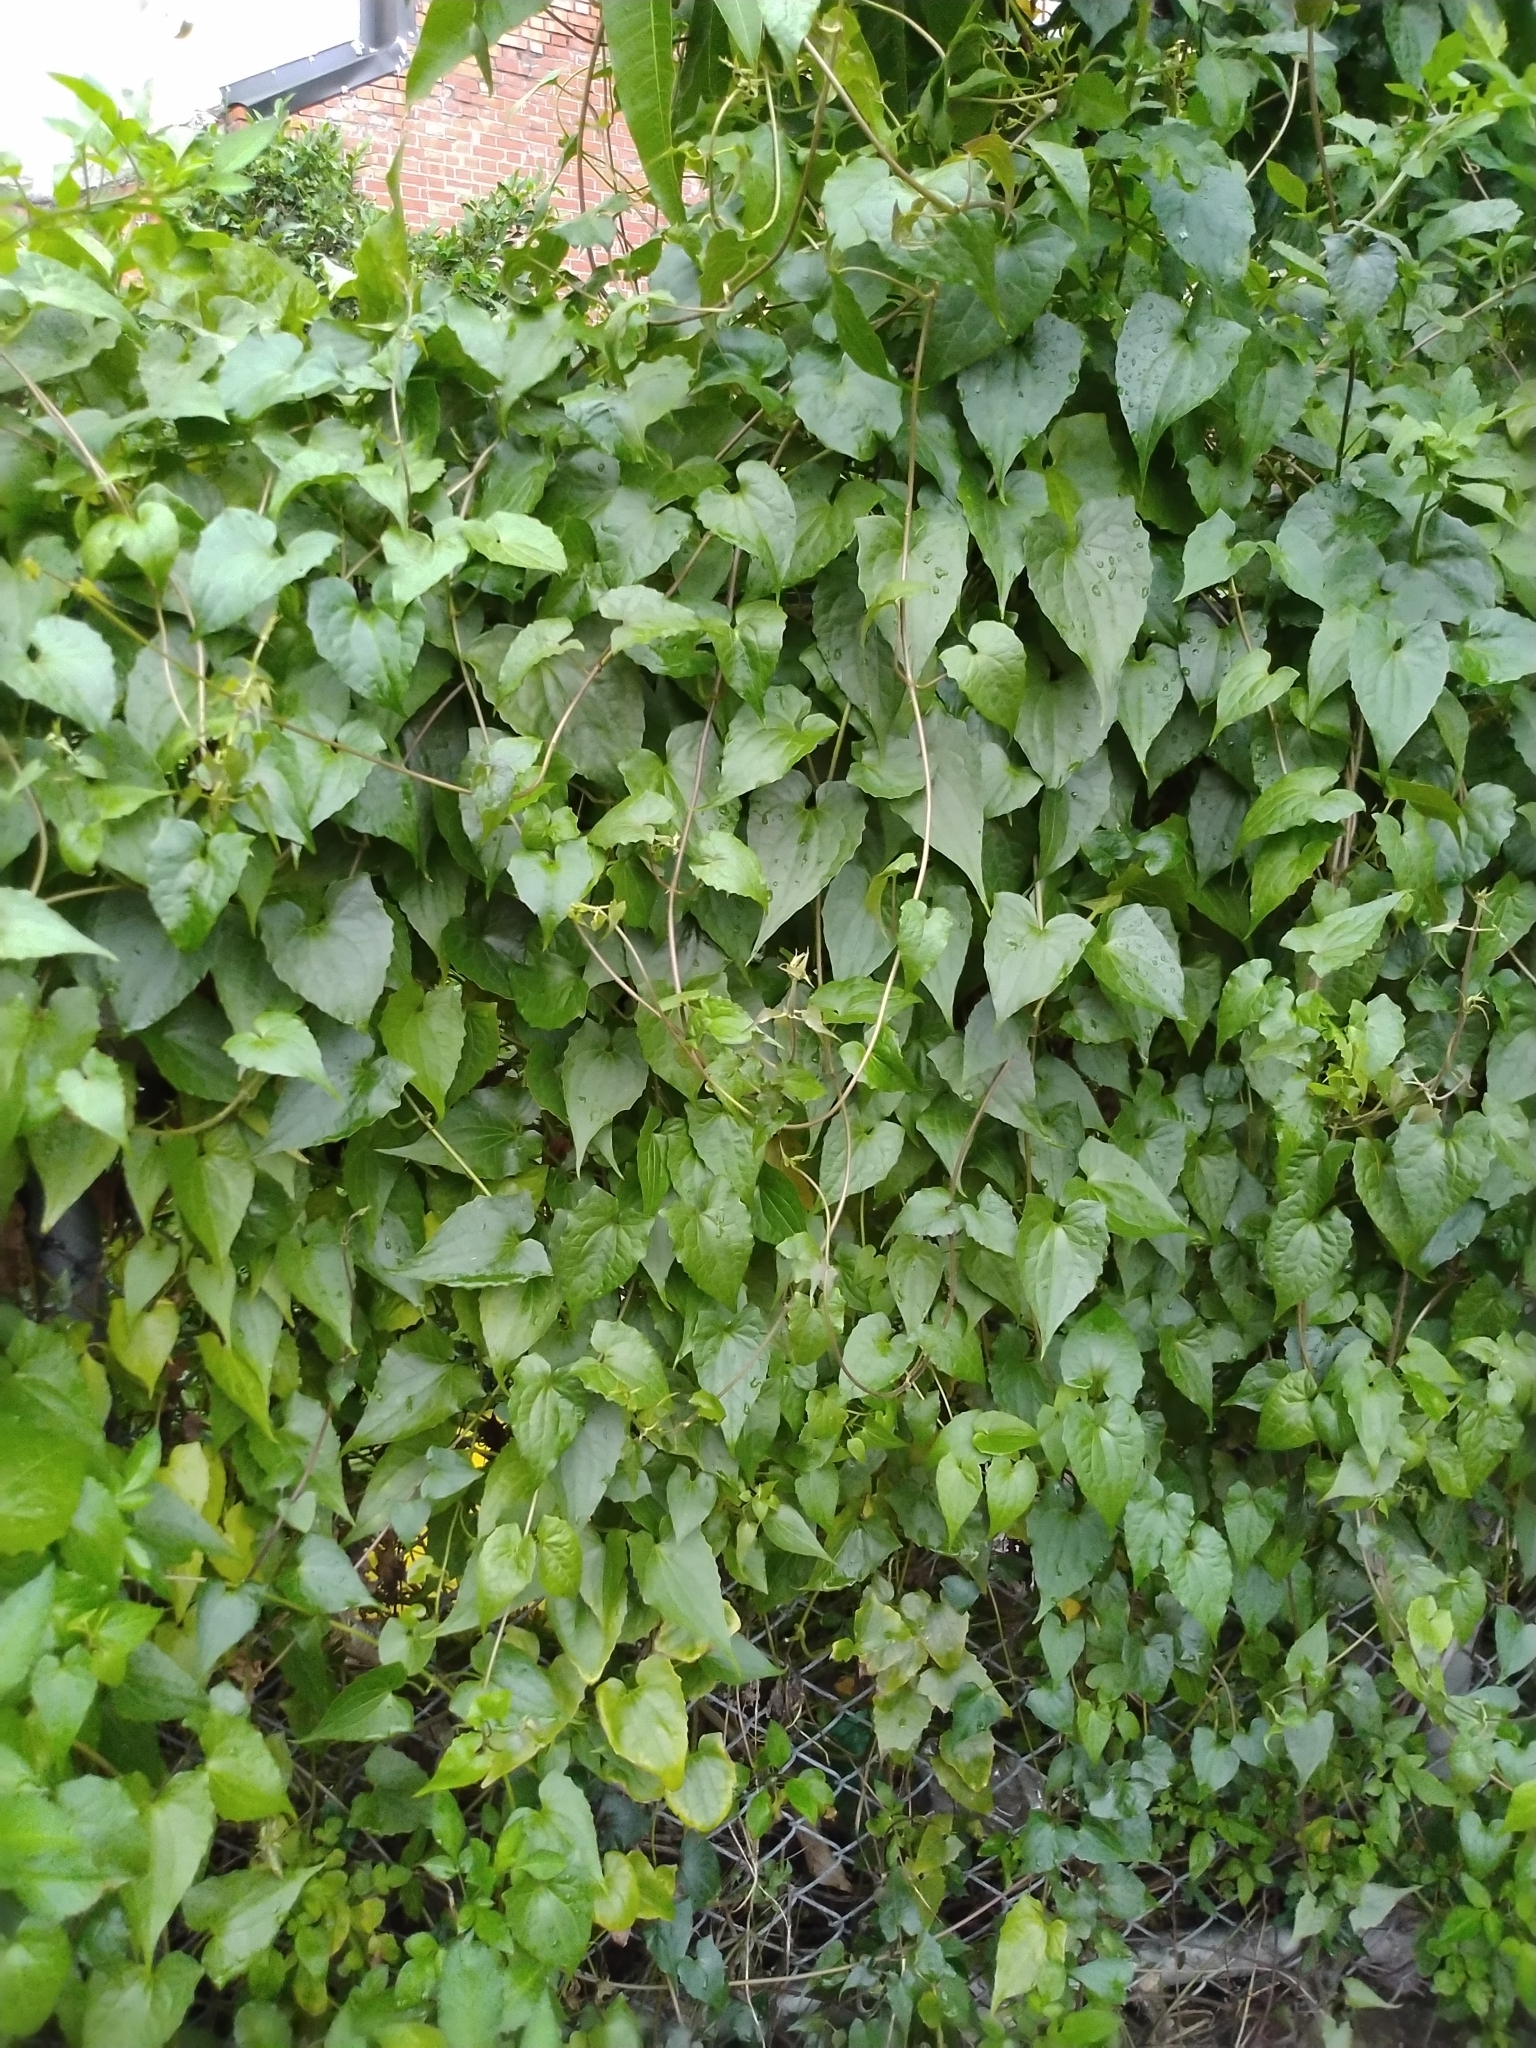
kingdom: Plantae
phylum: Tracheophyta
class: Magnoliopsida
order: Asterales
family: Asteraceae
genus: Mikania
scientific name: Mikania micrantha
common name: Mile-a-minute
